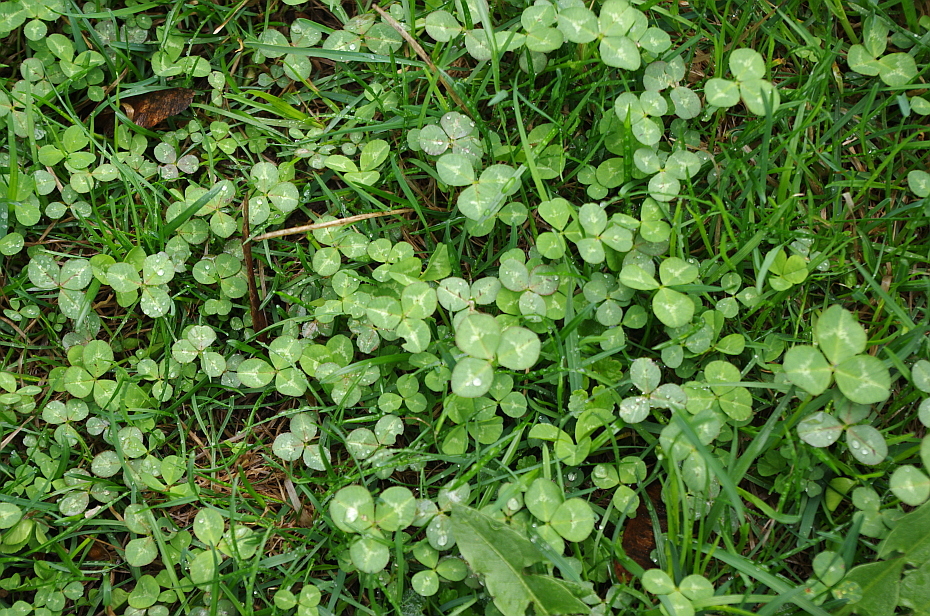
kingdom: Plantae
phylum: Tracheophyta
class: Magnoliopsida
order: Fabales
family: Fabaceae
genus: Trifolium
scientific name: Trifolium repens
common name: White clover
